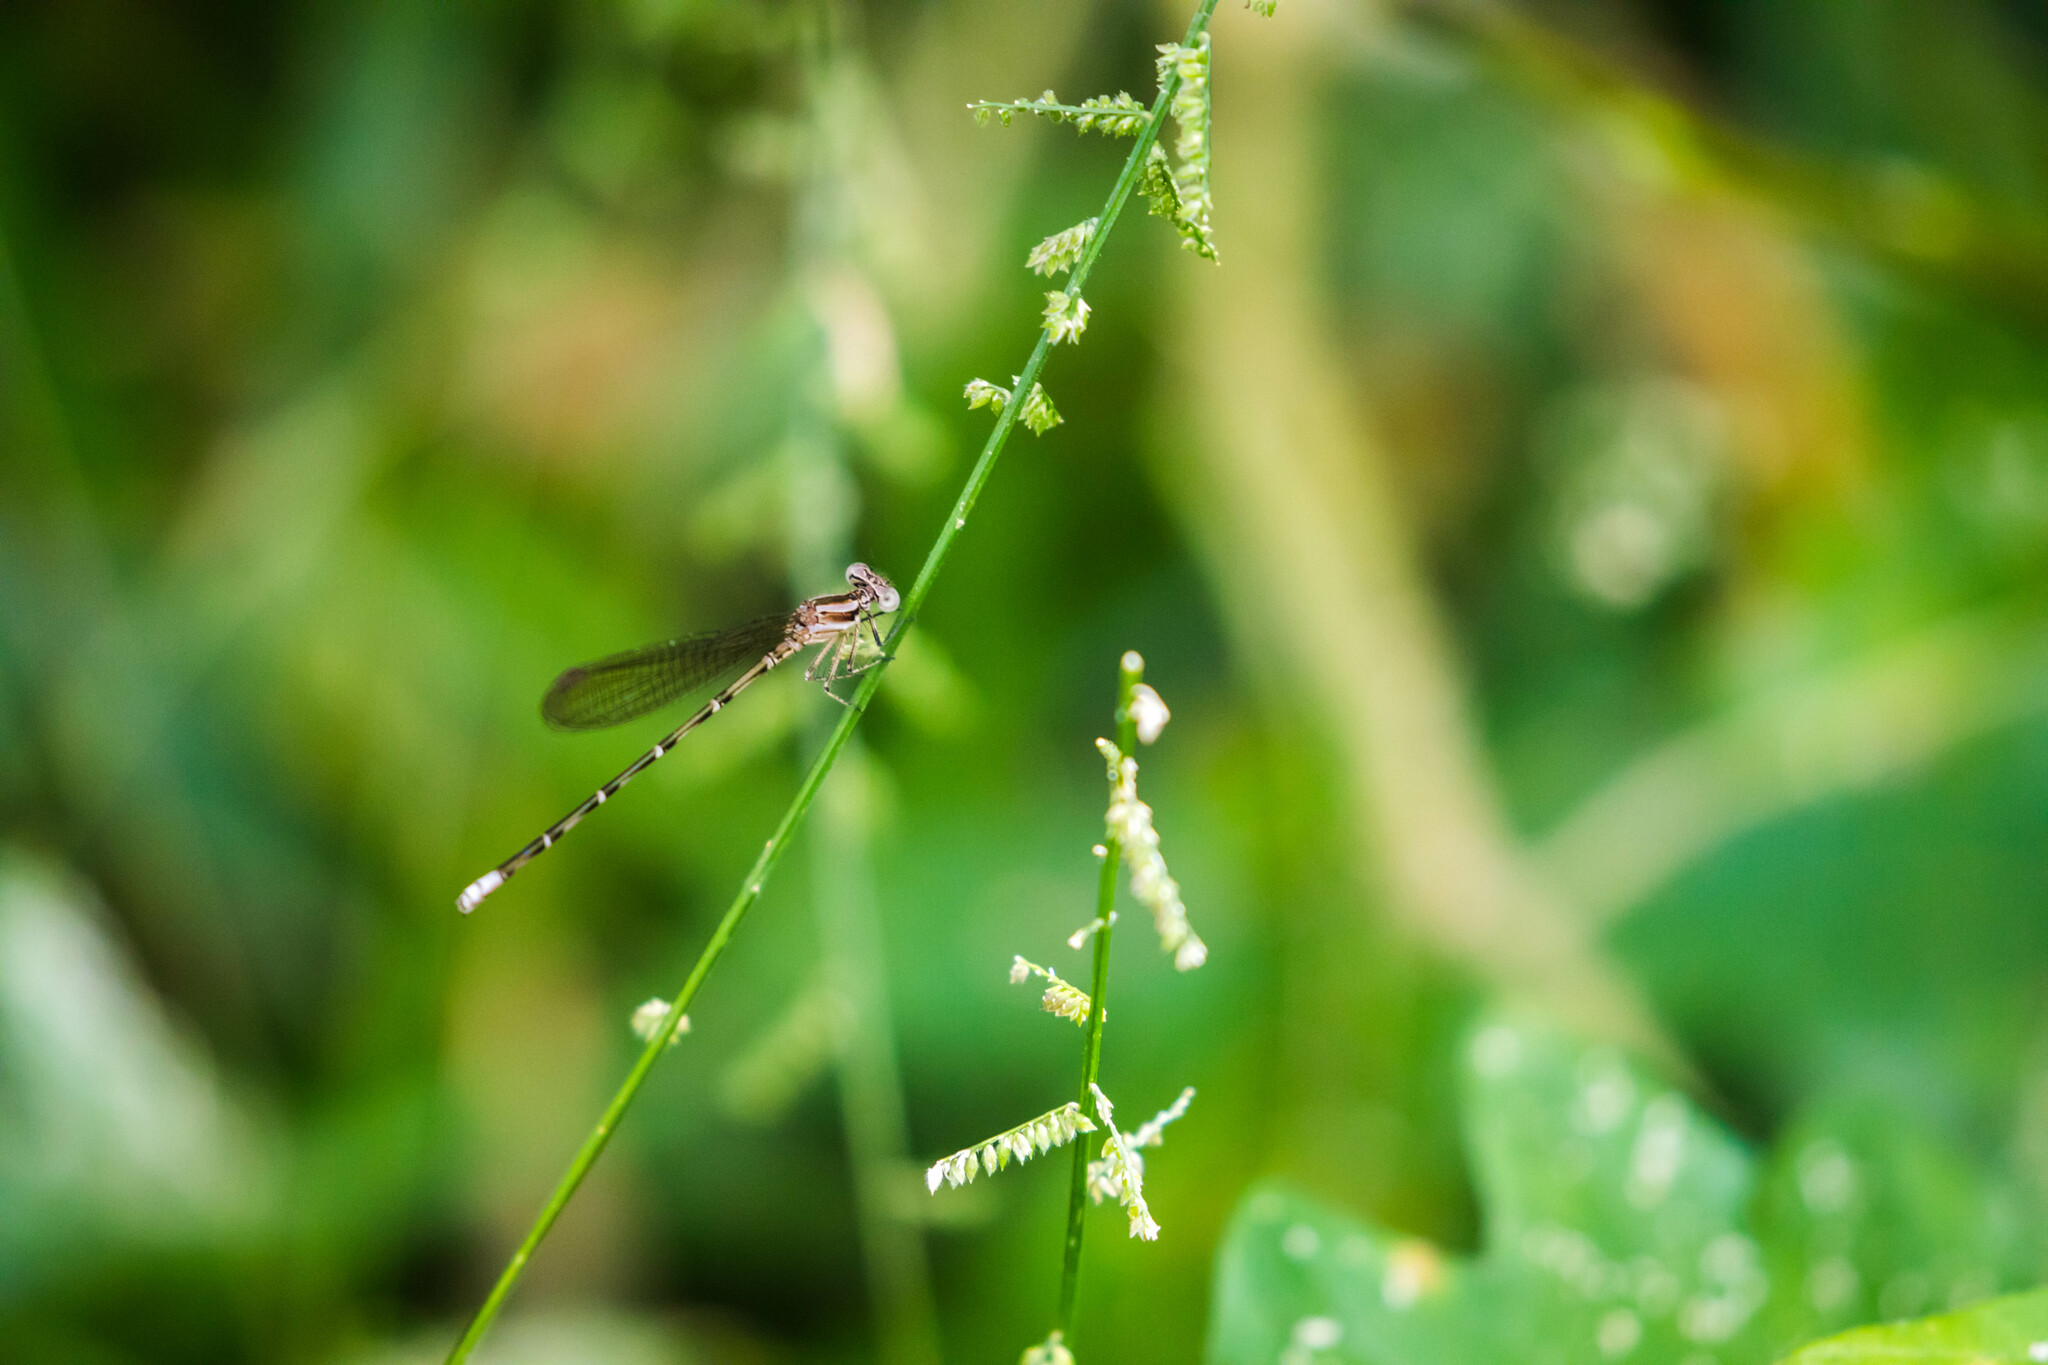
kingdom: Animalia
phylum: Arthropoda
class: Insecta
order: Odonata
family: Coenagrionidae
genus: Argia
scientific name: Argia pulla
